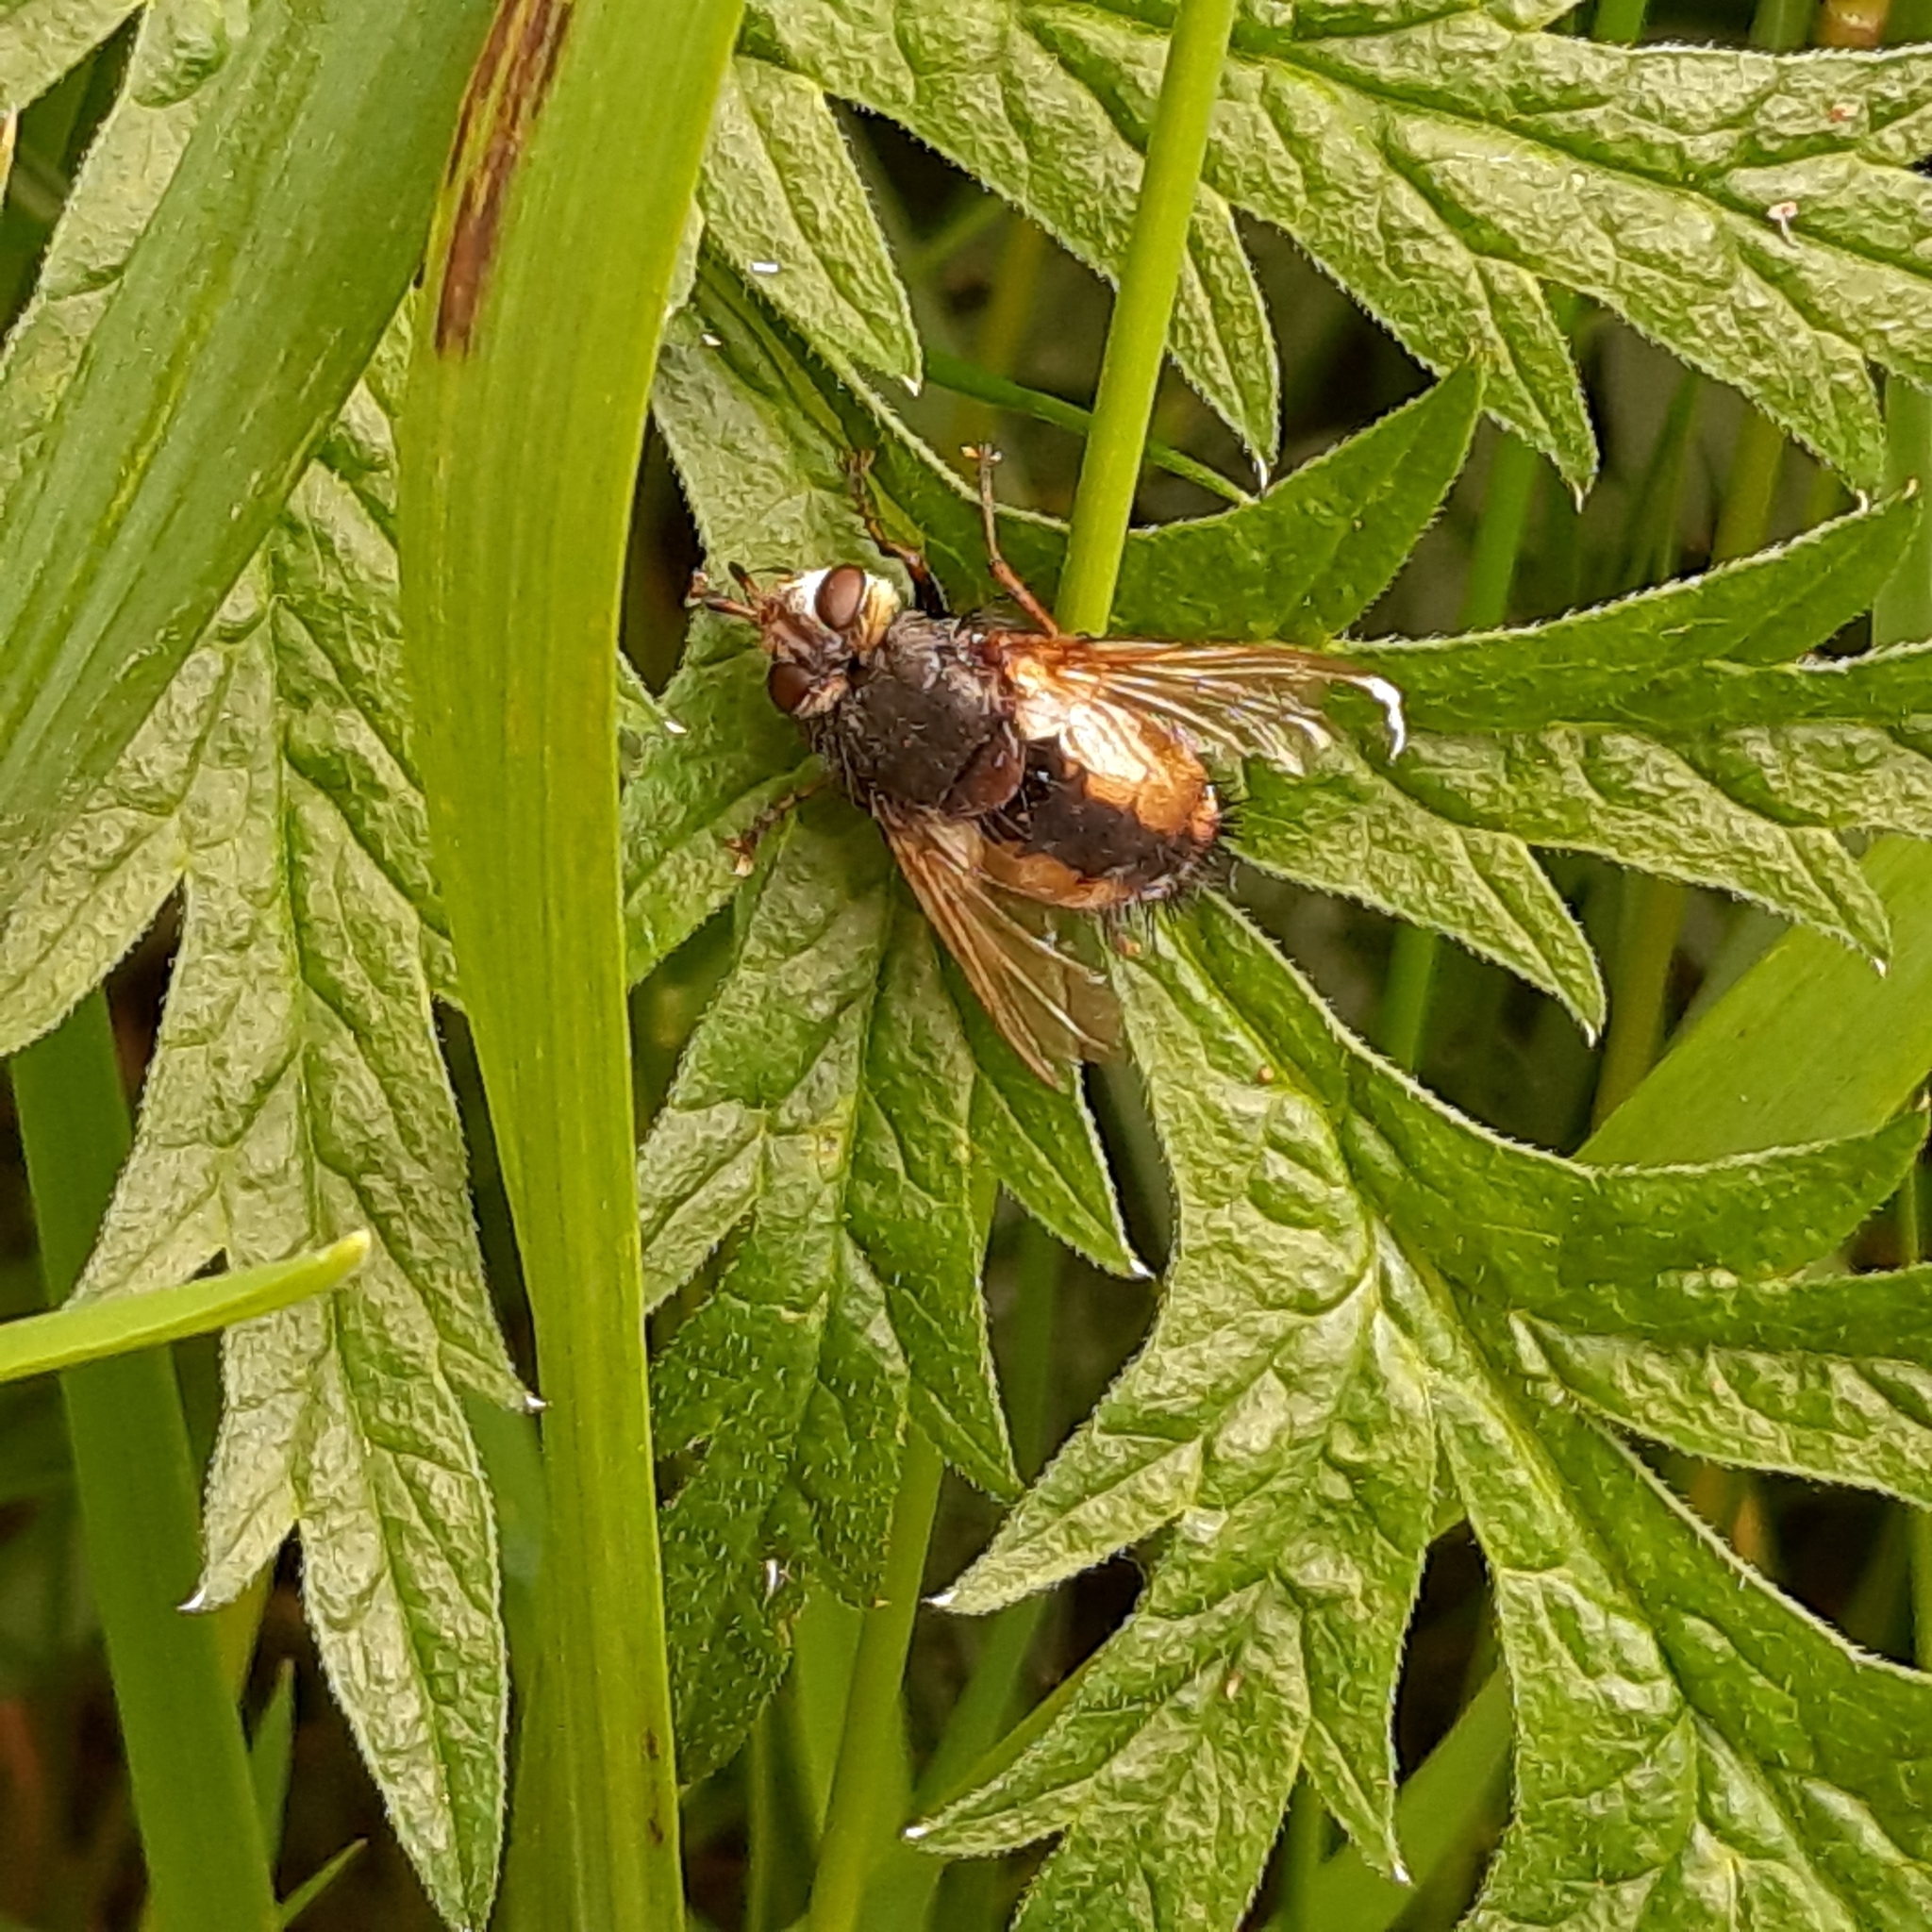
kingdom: Animalia
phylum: Arthropoda
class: Insecta
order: Diptera
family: Tachinidae
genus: Tachina
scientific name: Tachina fera
